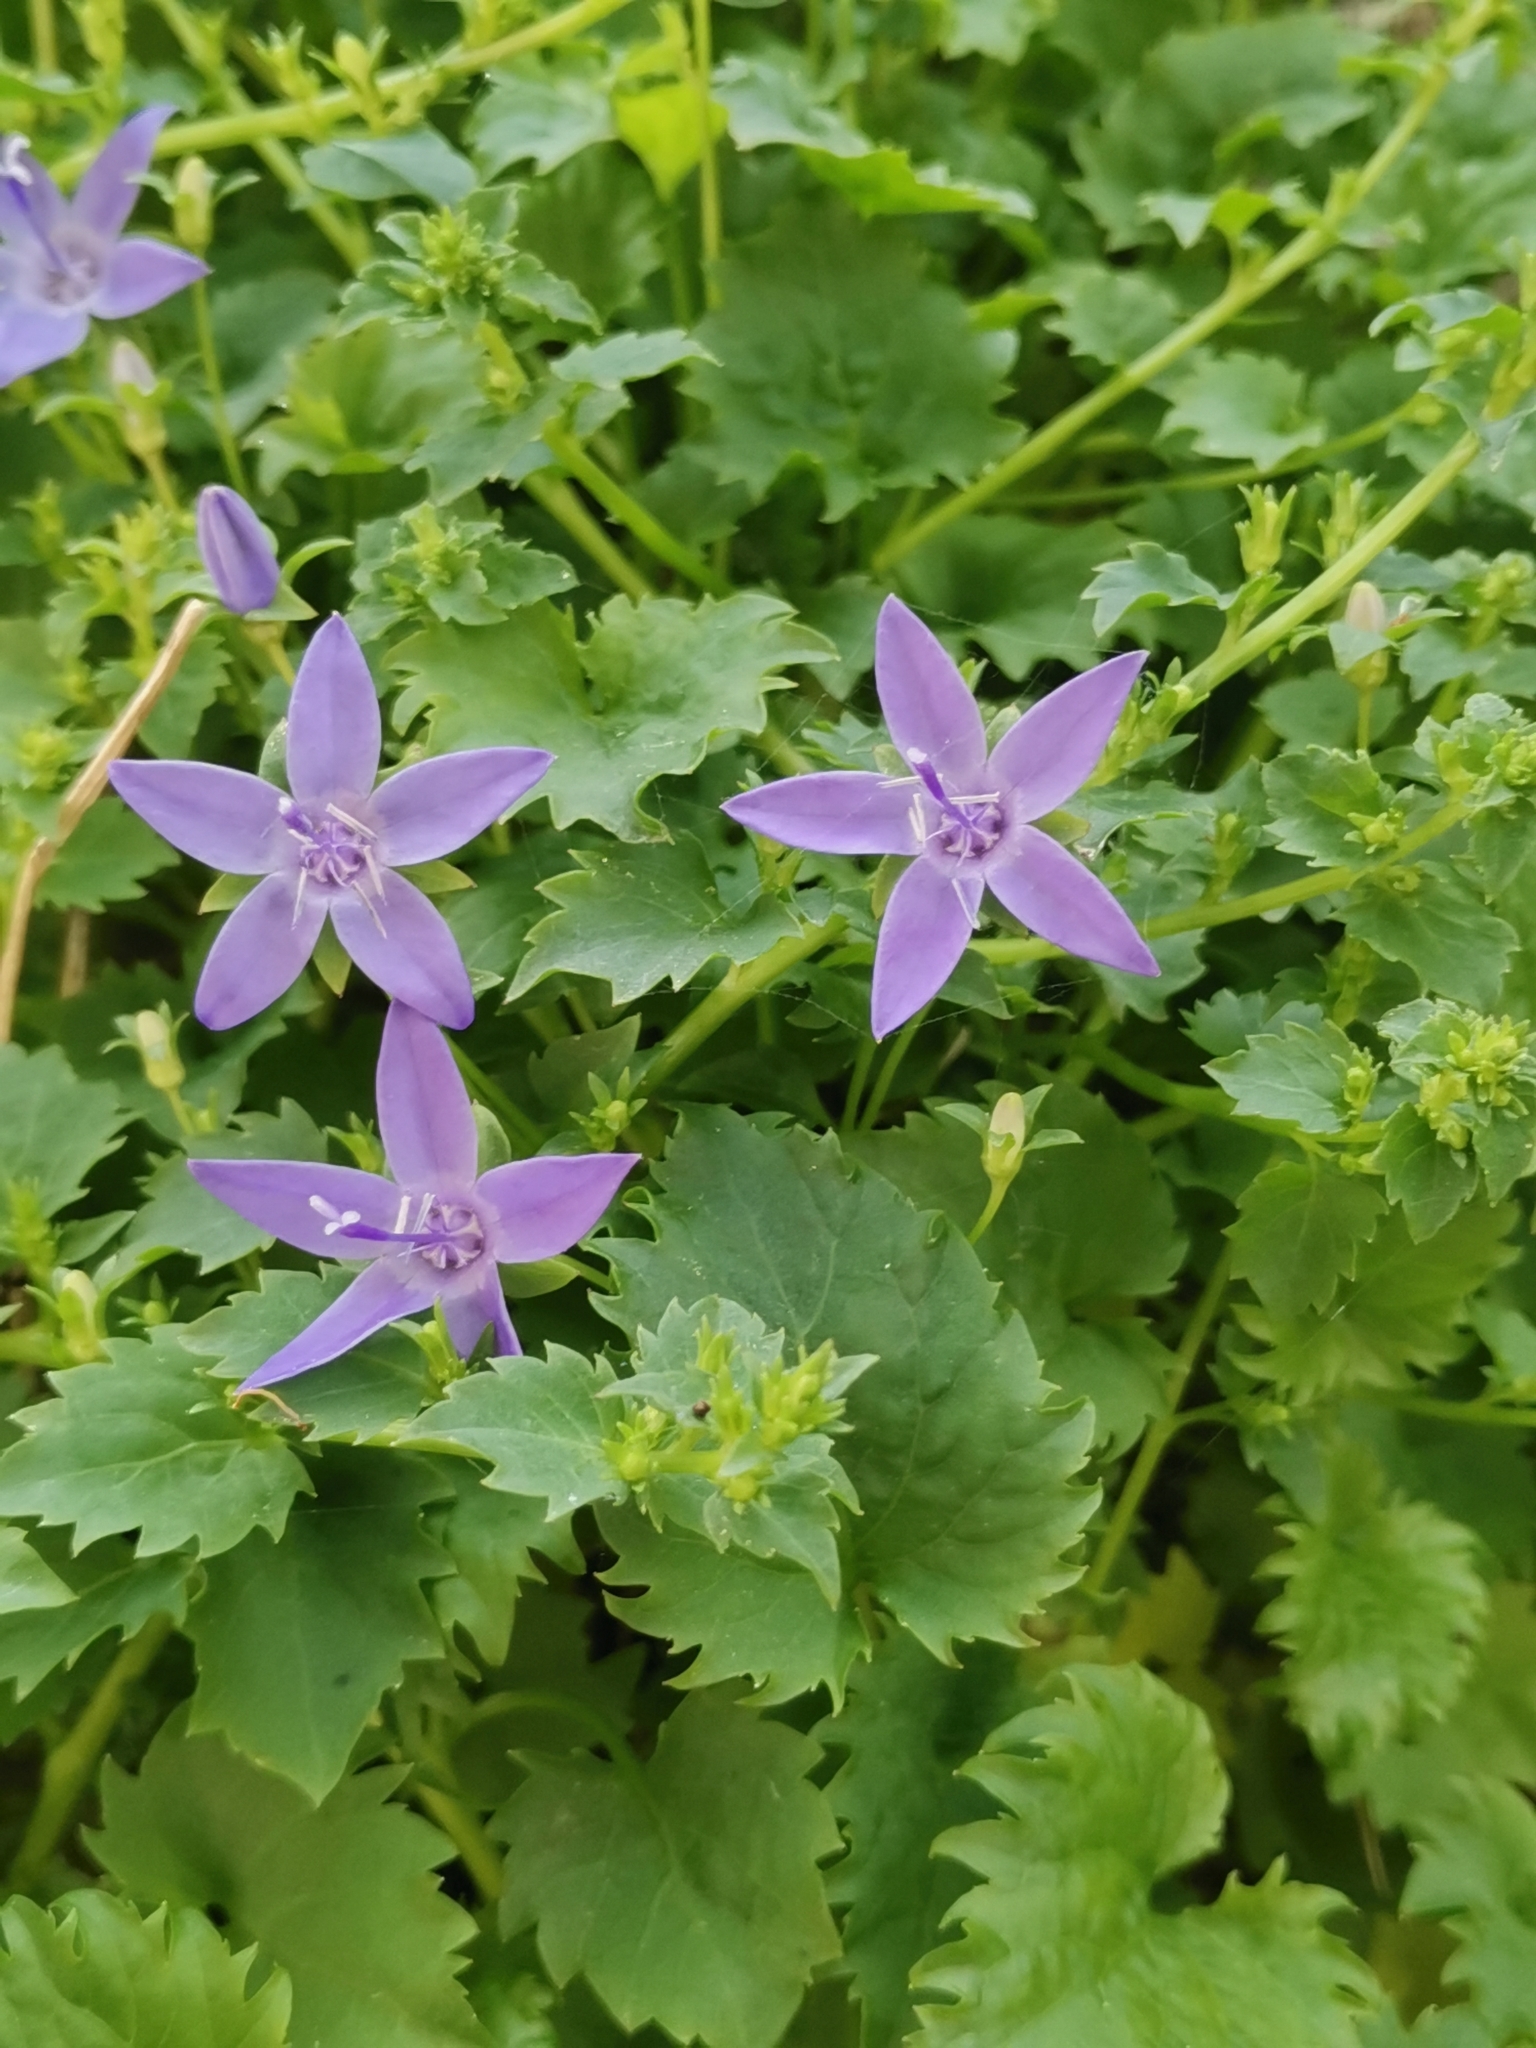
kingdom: Plantae
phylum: Tracheophyta
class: Magnoliopsida
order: Asterales
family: Campanulaceae
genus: Campanula
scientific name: Campanula fenestrellata
